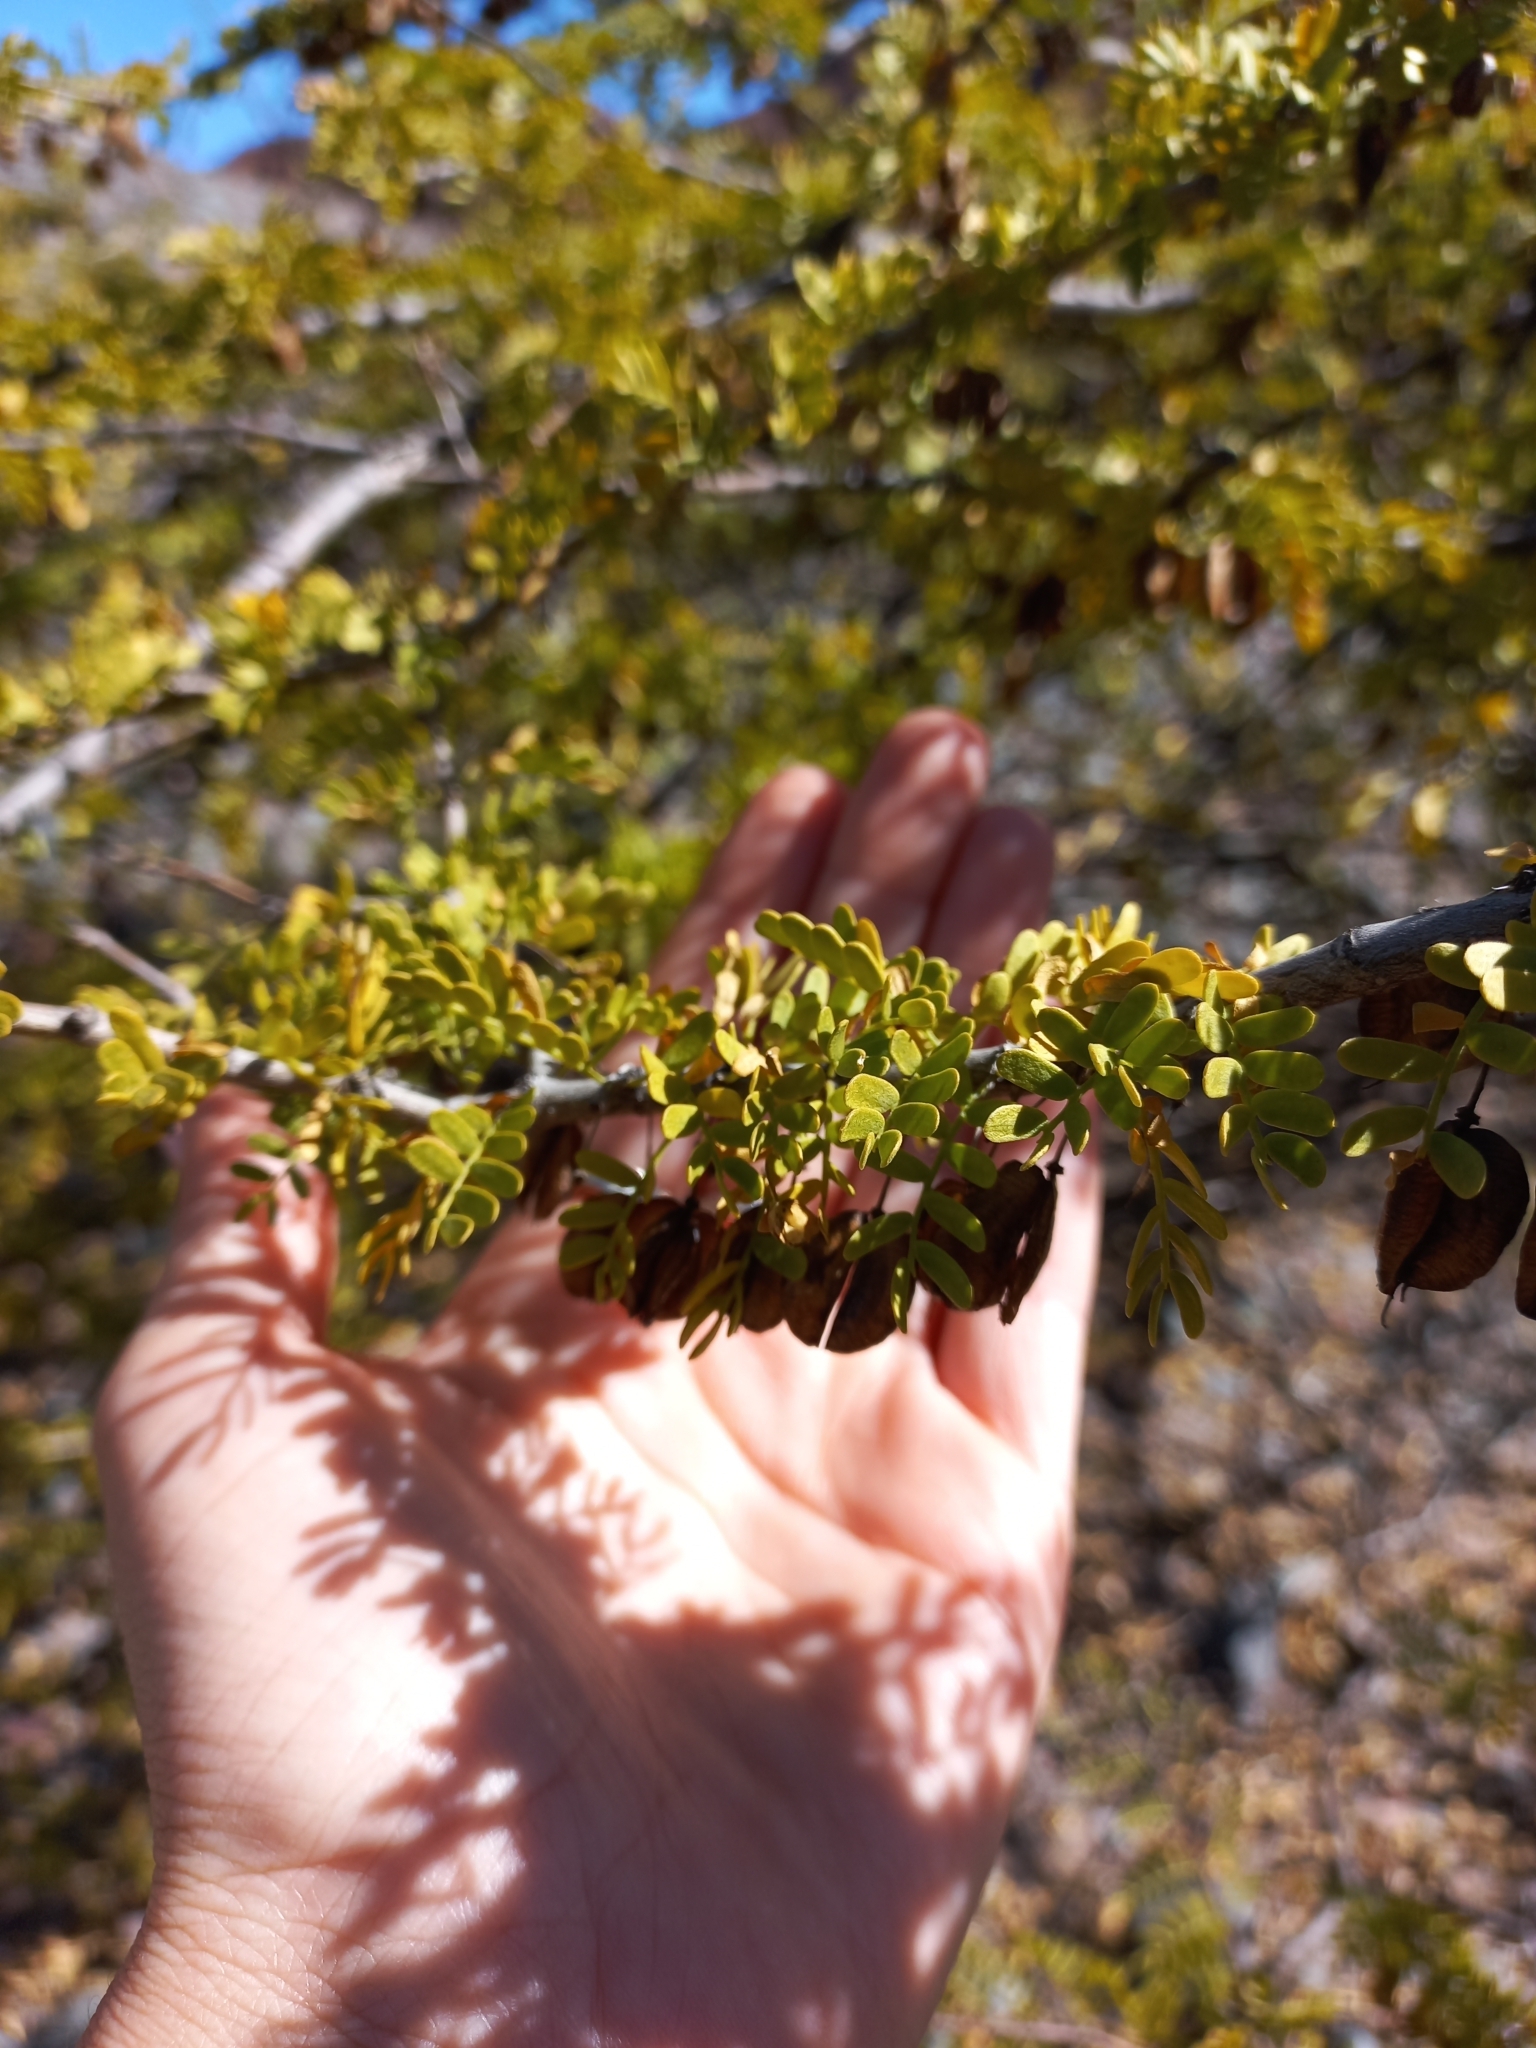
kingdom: Plantae
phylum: Tracheophyta
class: Magnoliopsida
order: Zygophyllales
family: Zygophyllaceae
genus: Bulnesia
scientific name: Bulnesia schickendantzii
